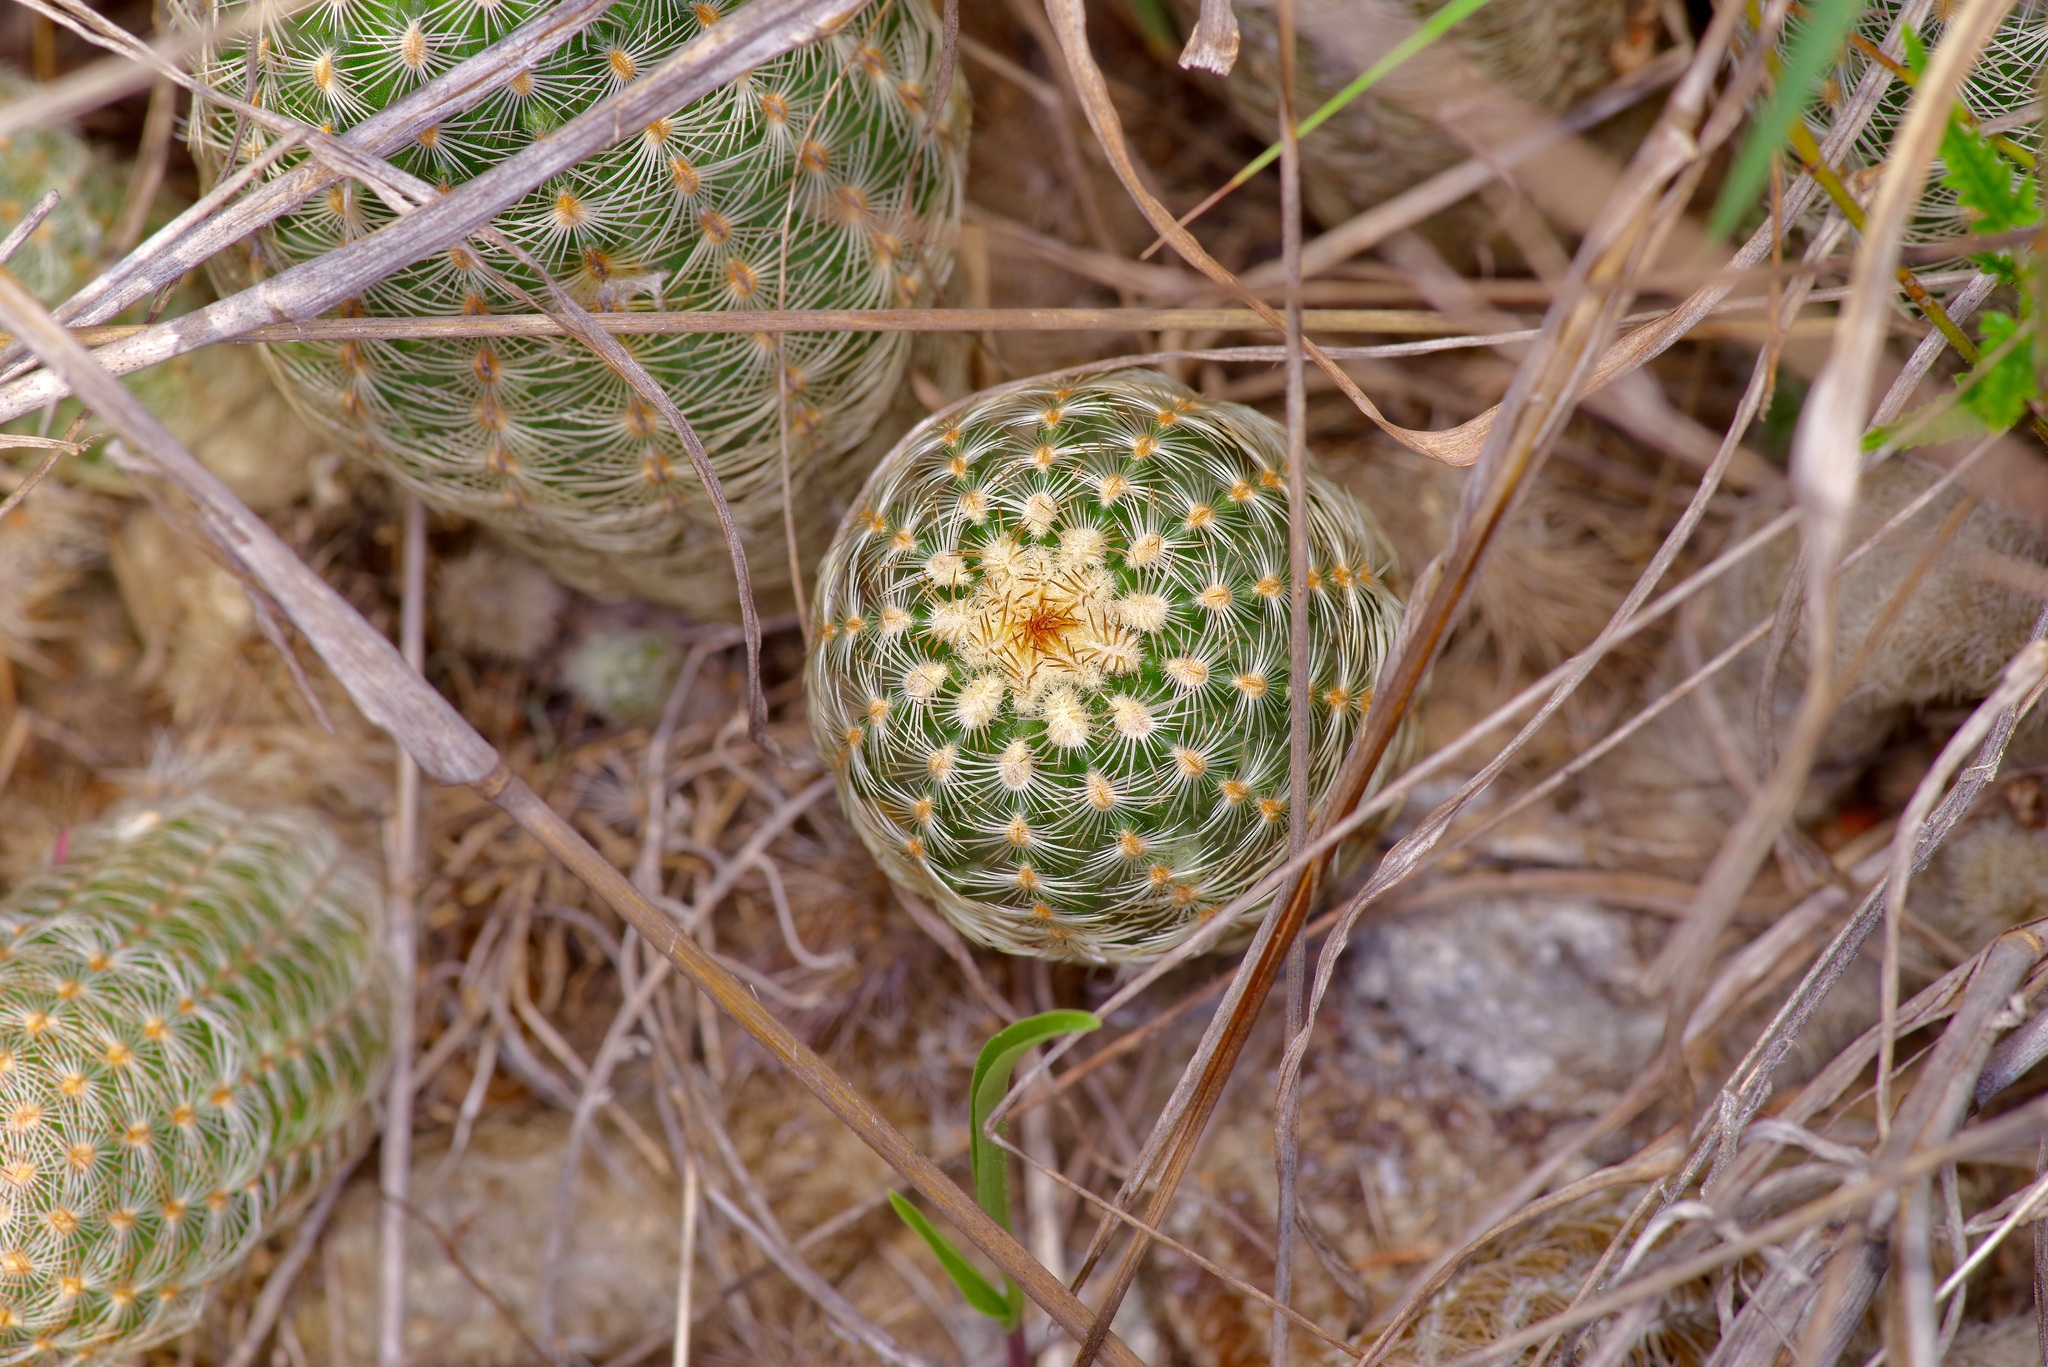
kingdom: Plantae
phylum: Tracheophyta
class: Magnoliopsida
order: Caryophyllales
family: Cactaceae
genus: Echinocereus
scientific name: Echinocereus reichenbachii
